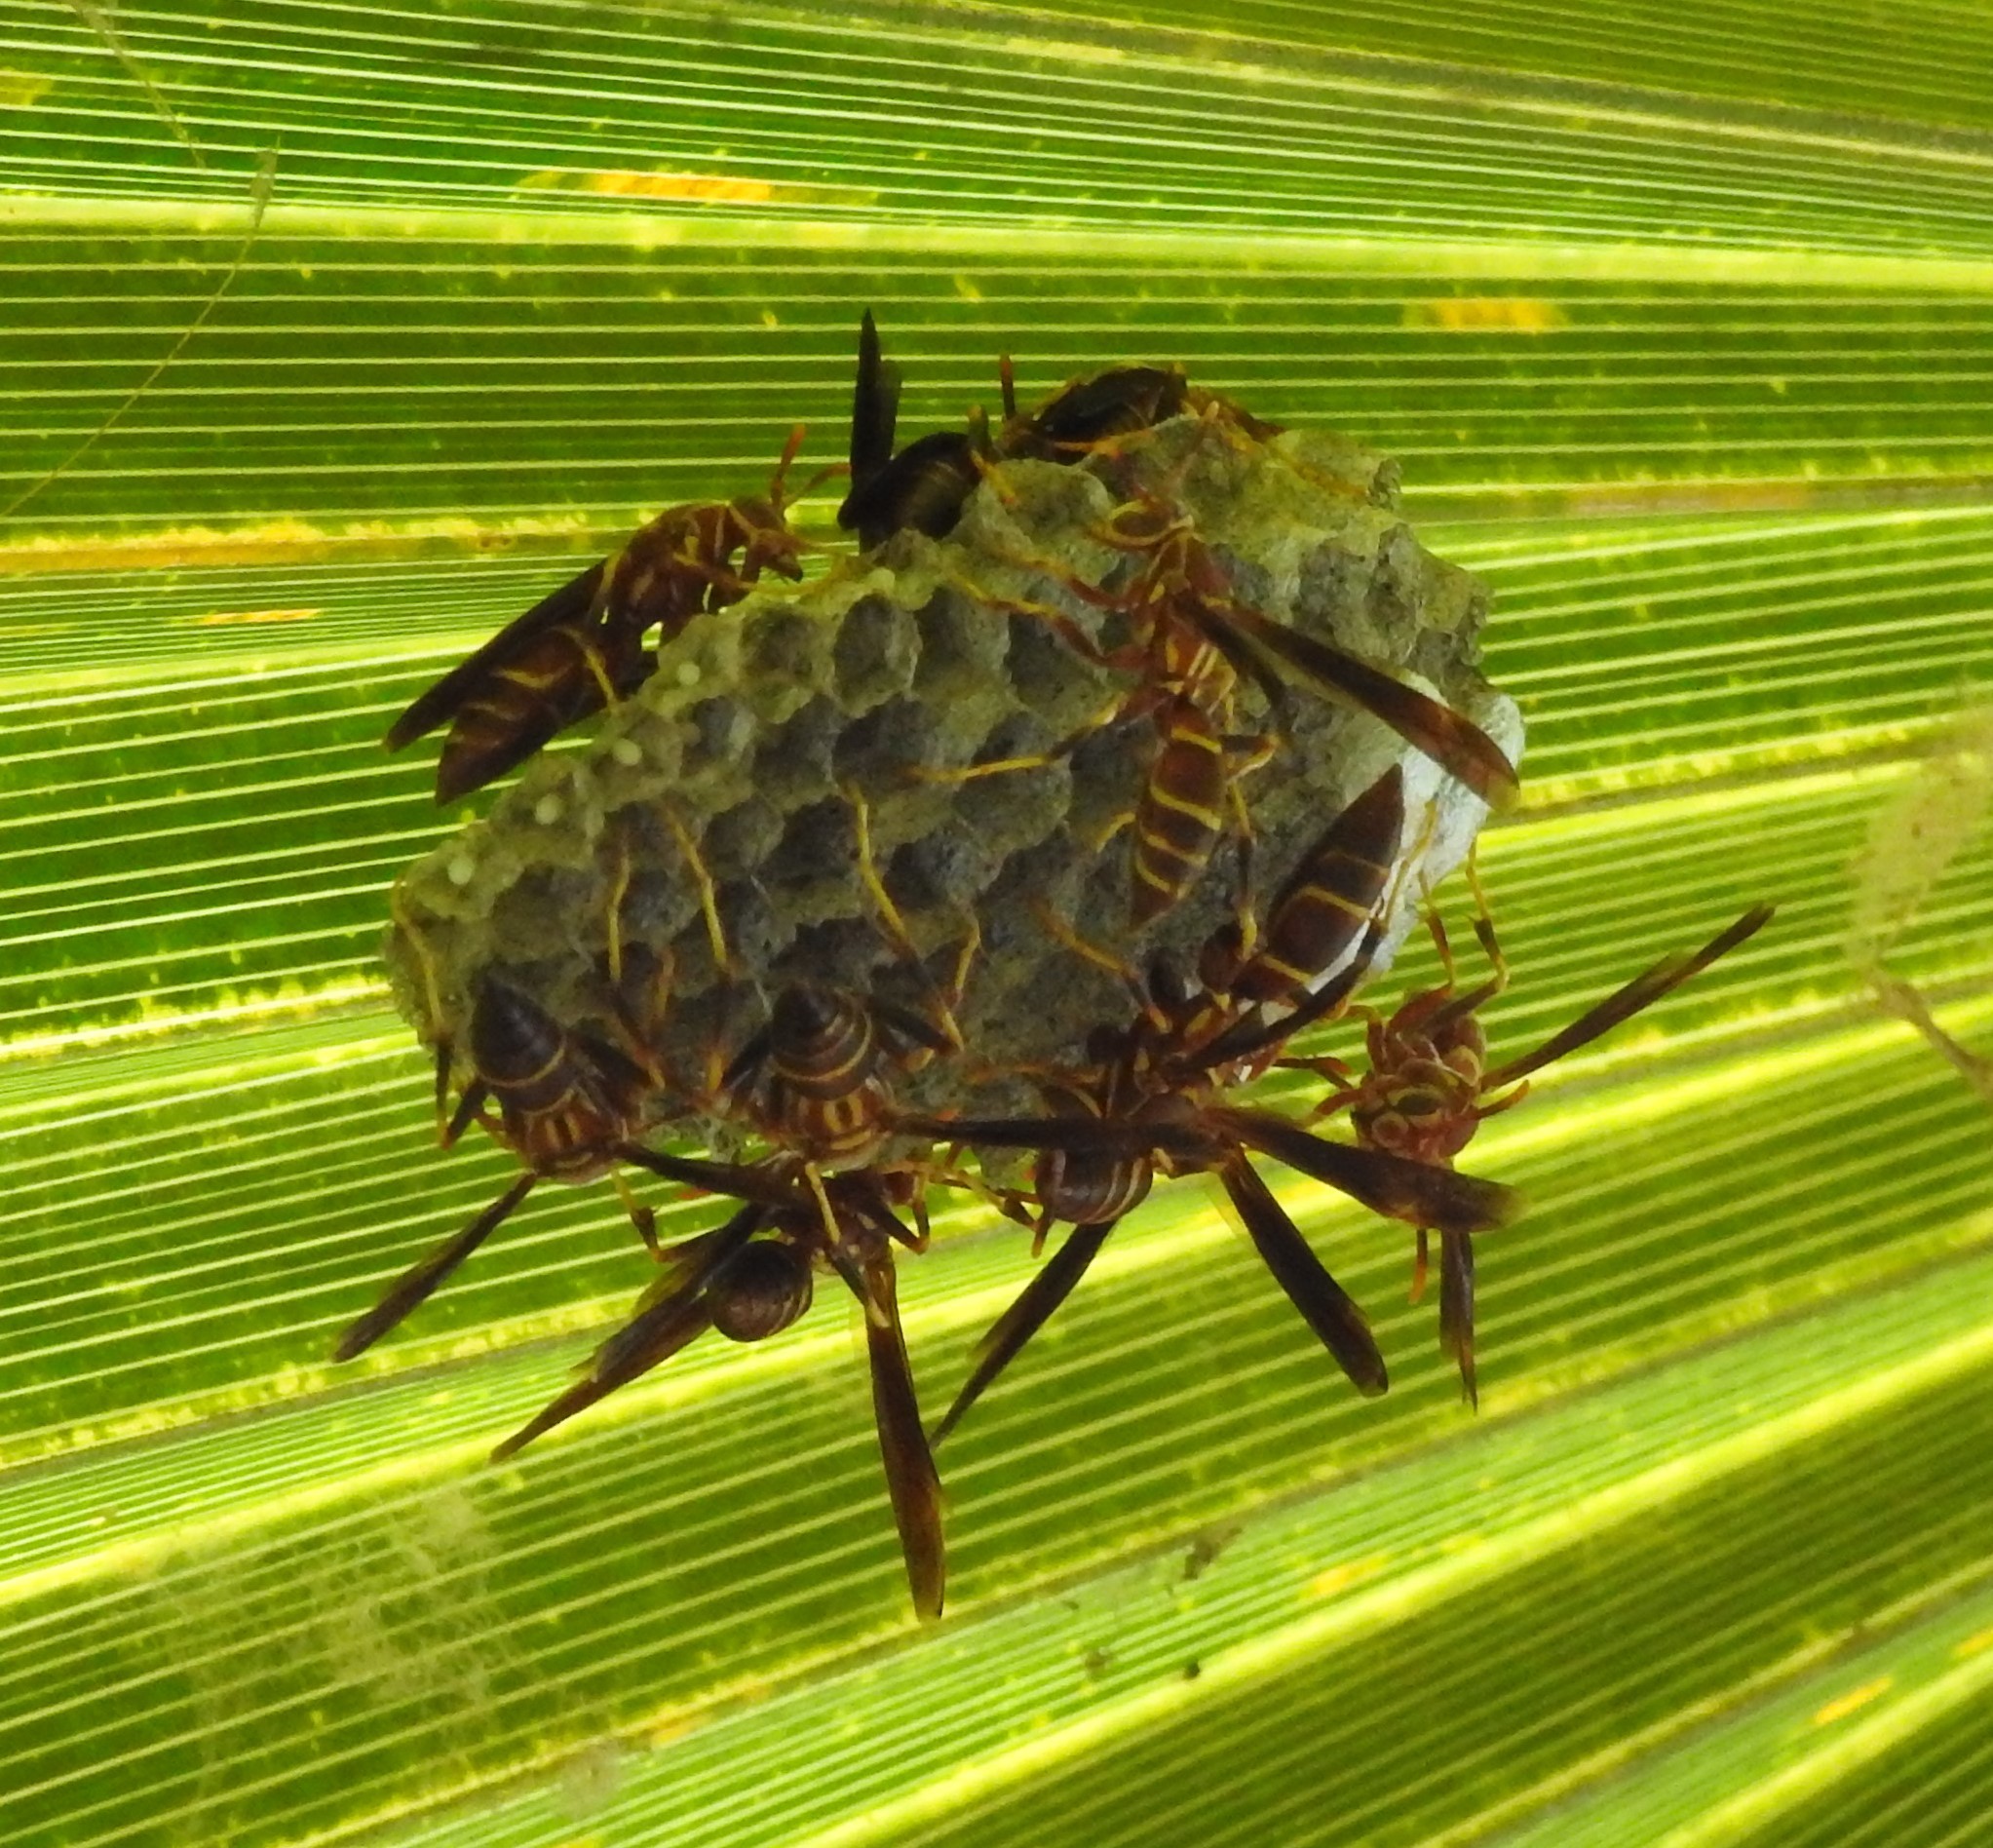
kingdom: Animalia
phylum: Arthropoda
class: Insecta
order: Hymenoptera
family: Eumenidae
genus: Polistes
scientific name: Polistes arizonensis
